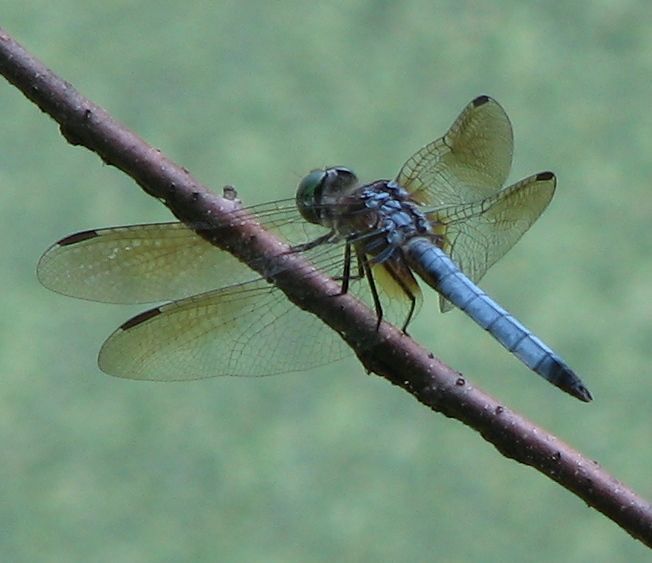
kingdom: Animalia
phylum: Arthropoda
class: Insecta
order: Odonata
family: Libellulidae
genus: Pachydiplax
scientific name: Pachydiplax longipennis
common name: Blue dasher
